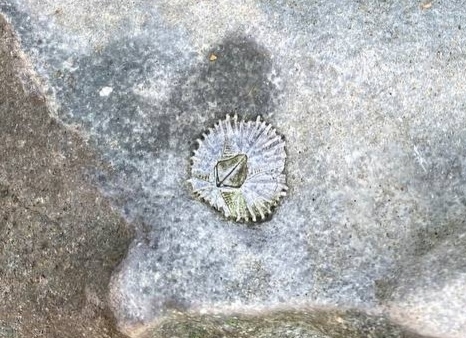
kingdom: Animalia
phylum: Arthropoda
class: Maxillopoda
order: Sessilia
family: Tetraclitidae
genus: Tetraclitella
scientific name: Tetraclitella purpurascens
